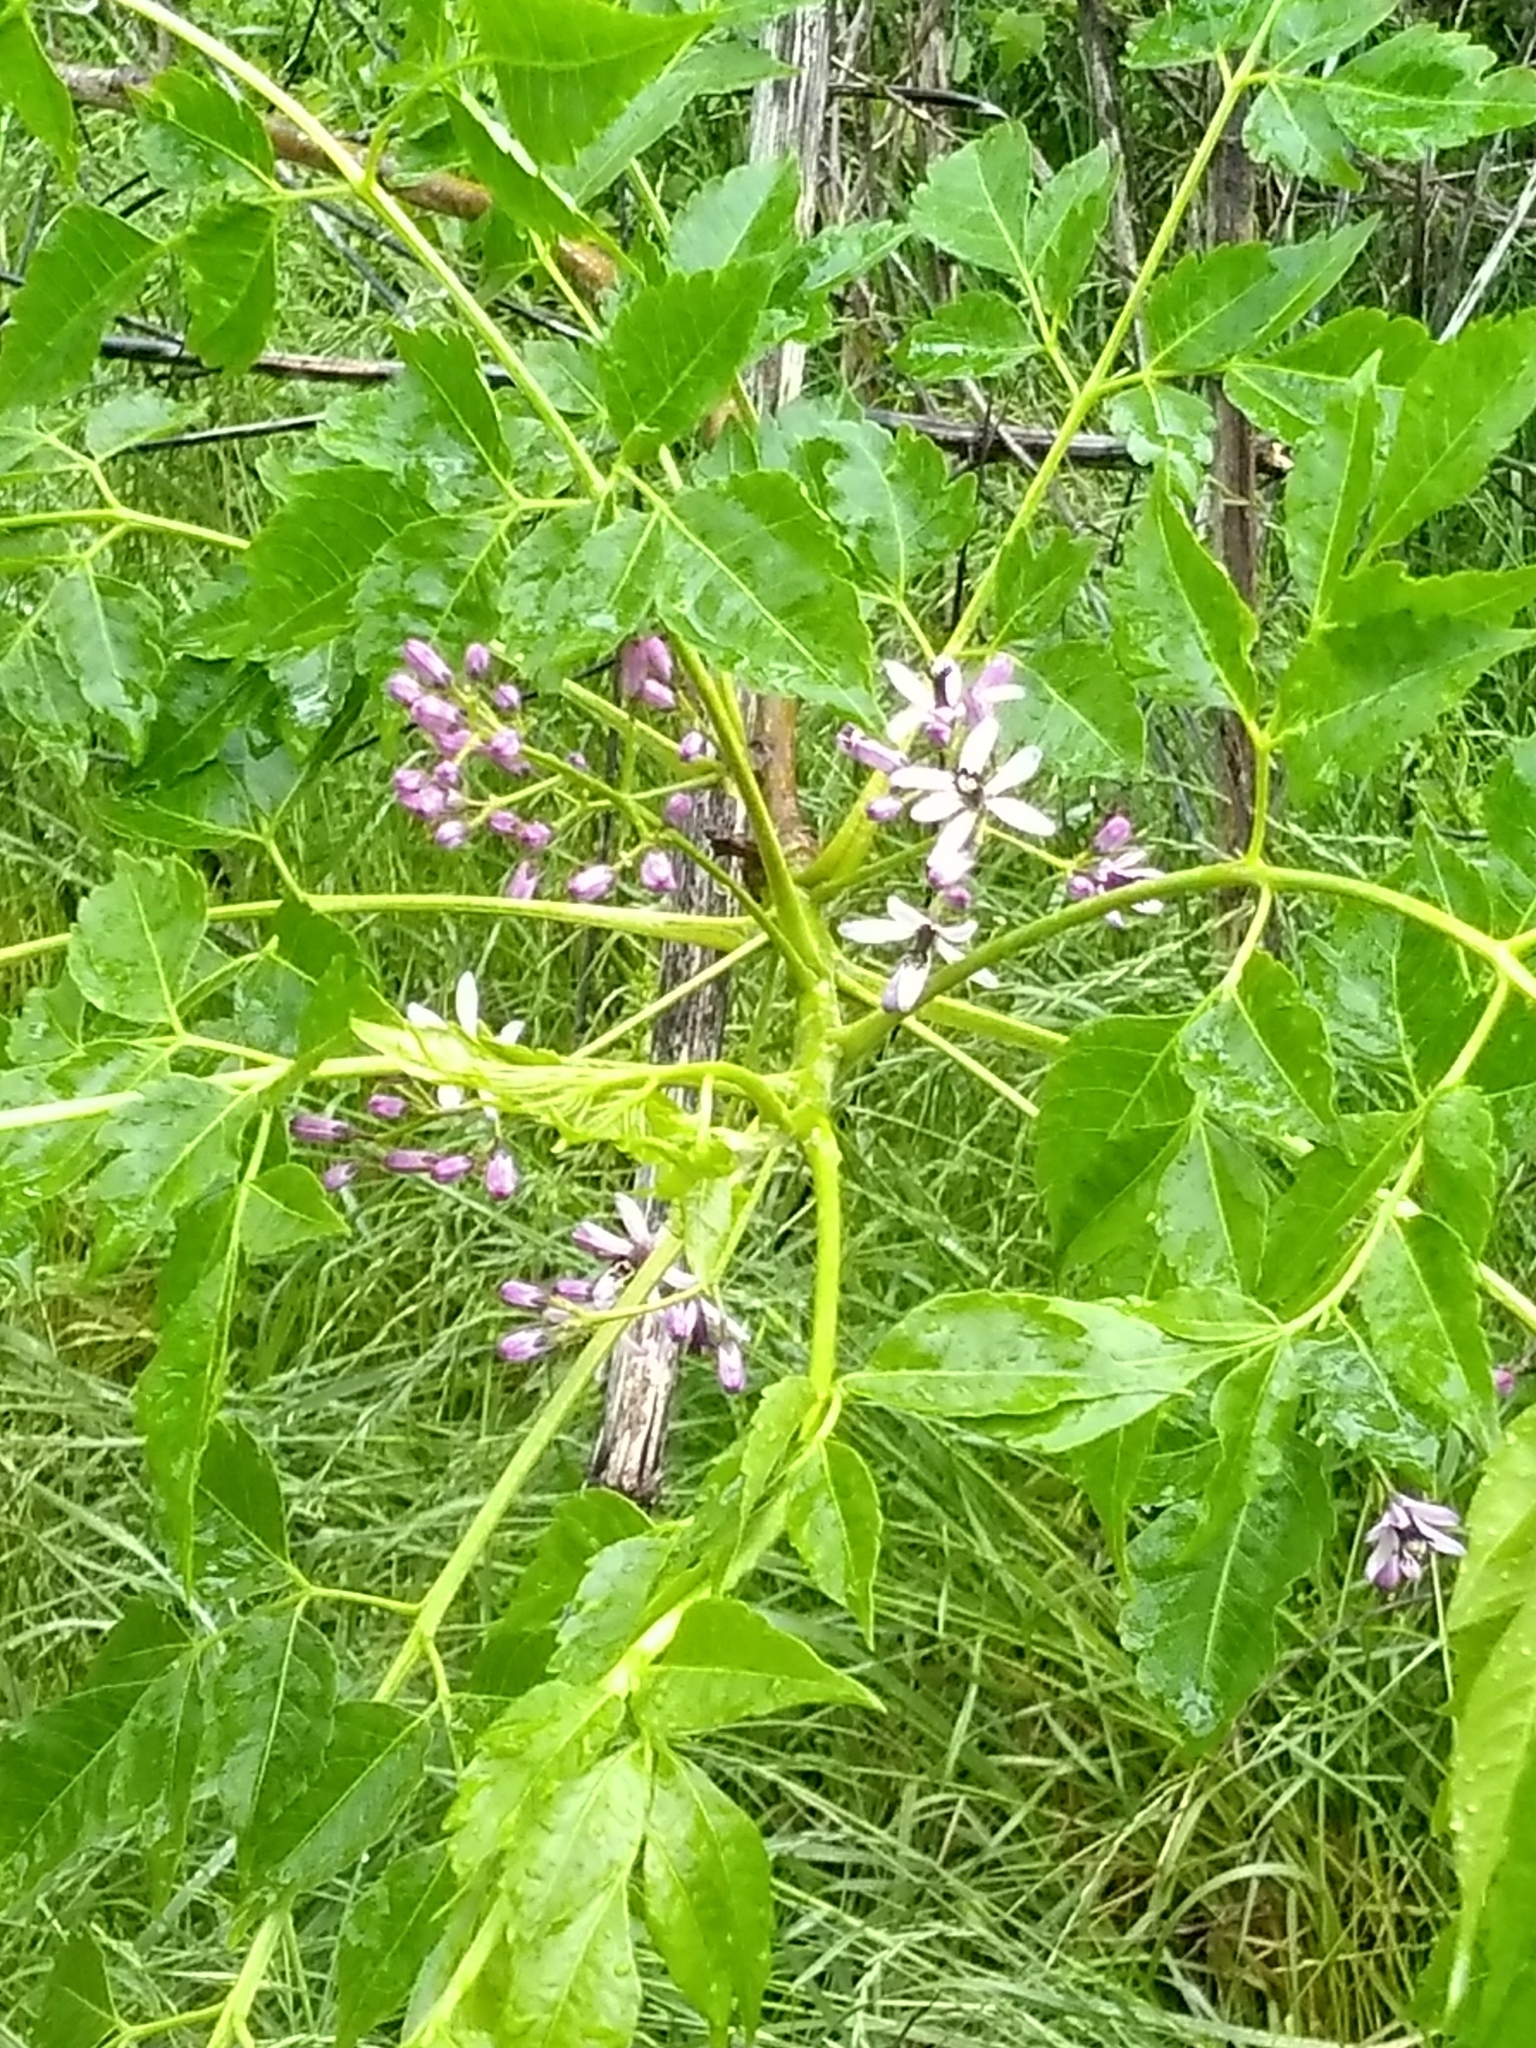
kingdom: Plantae
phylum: Tracheophyta
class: Magnoliopsida
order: Sapindales
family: Meliaceae
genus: Melia
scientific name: Melia azedarach
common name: Chinaberrytree
